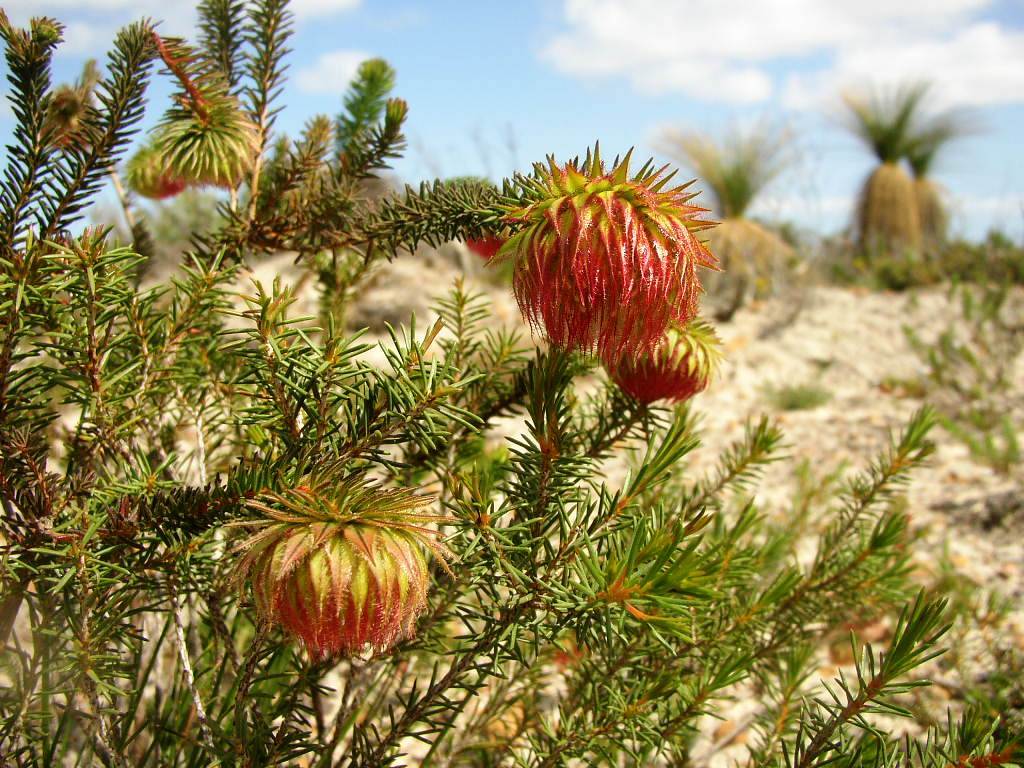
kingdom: Plantae
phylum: Tracheophyta
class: Magnoliopsida
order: Myrtales
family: Myrtaceae
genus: Darwinia
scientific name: Darwinia neildiana
